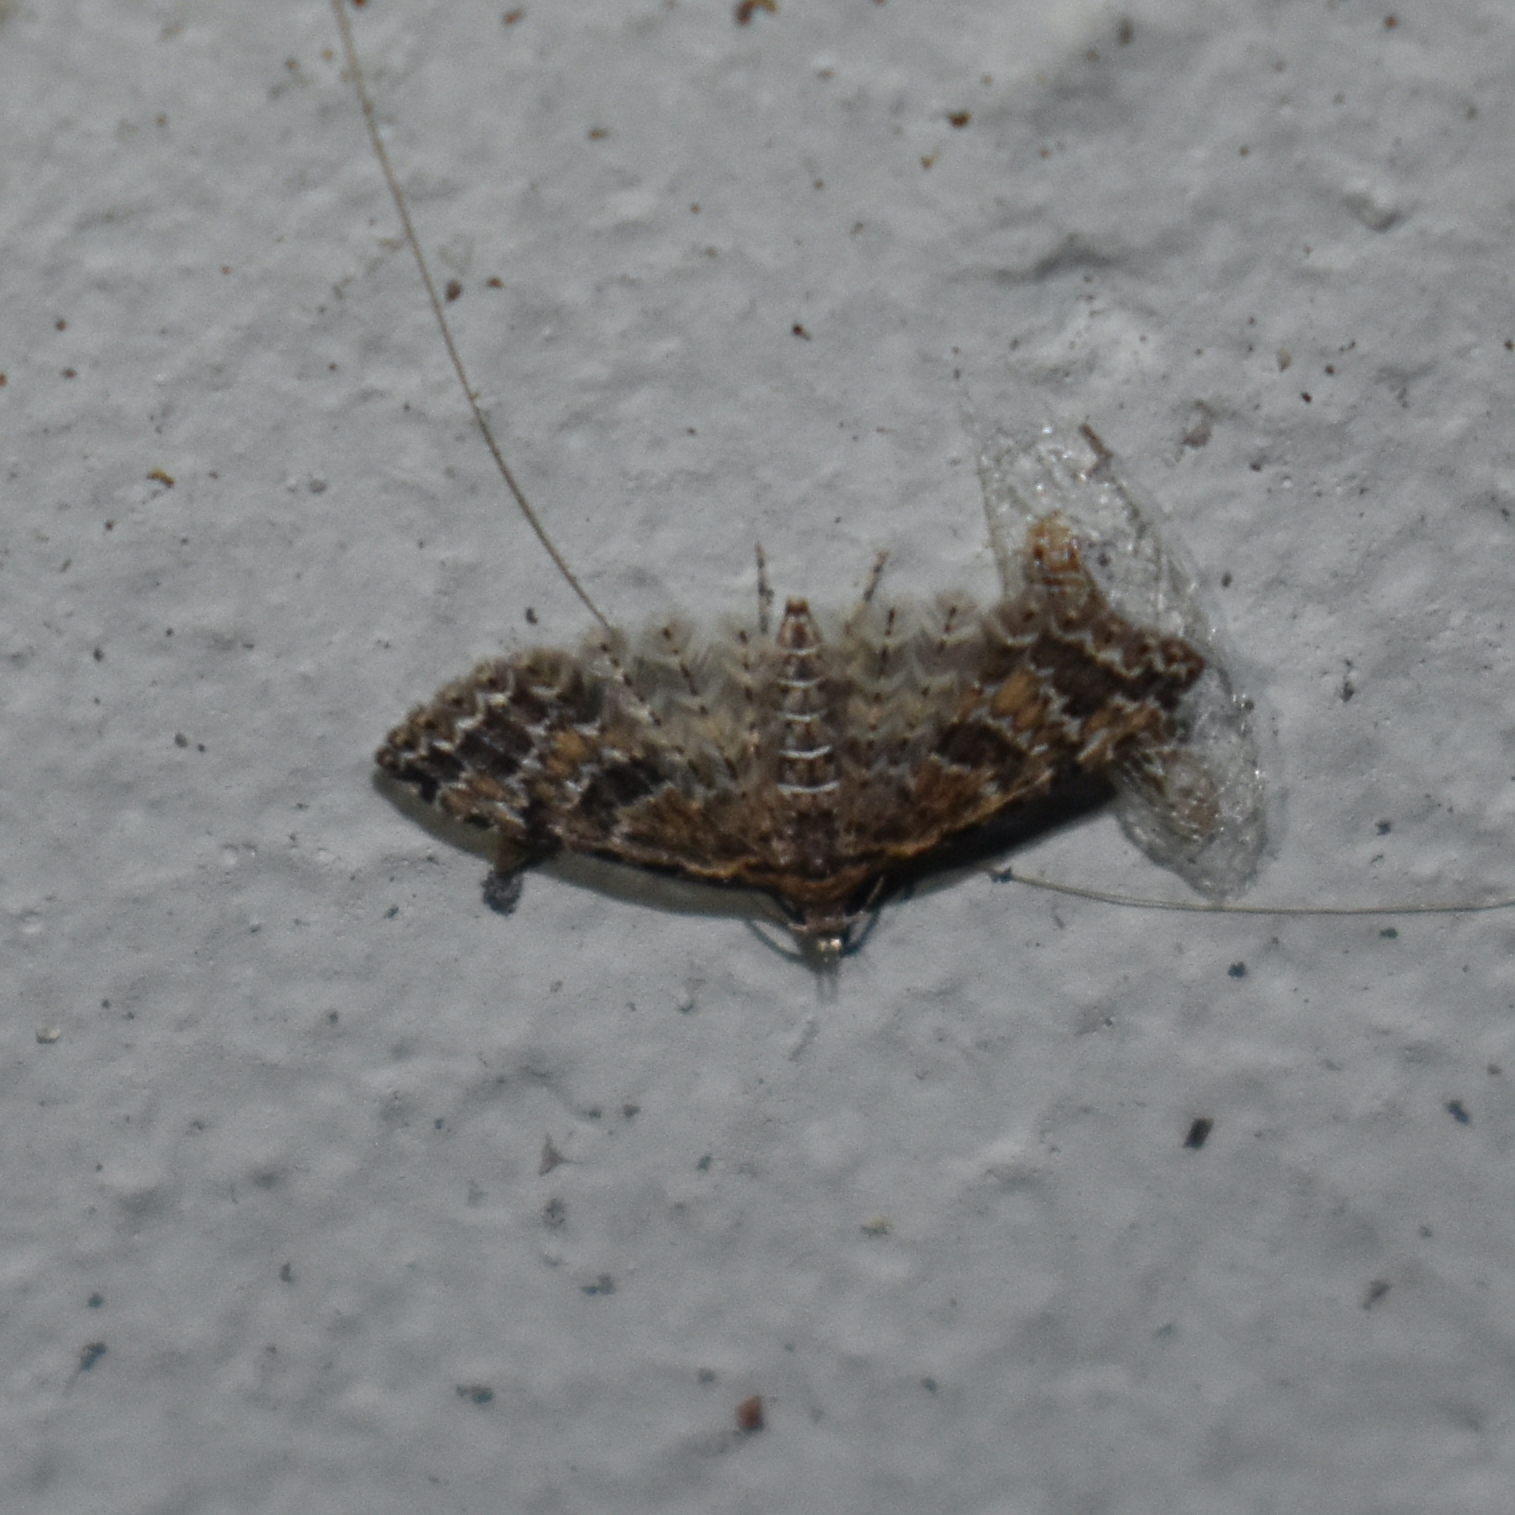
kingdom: Animalia
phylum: Arthropoda
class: Insecta
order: Lepidoptera
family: Alucitidae
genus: Alucita
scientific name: Alucita montana
